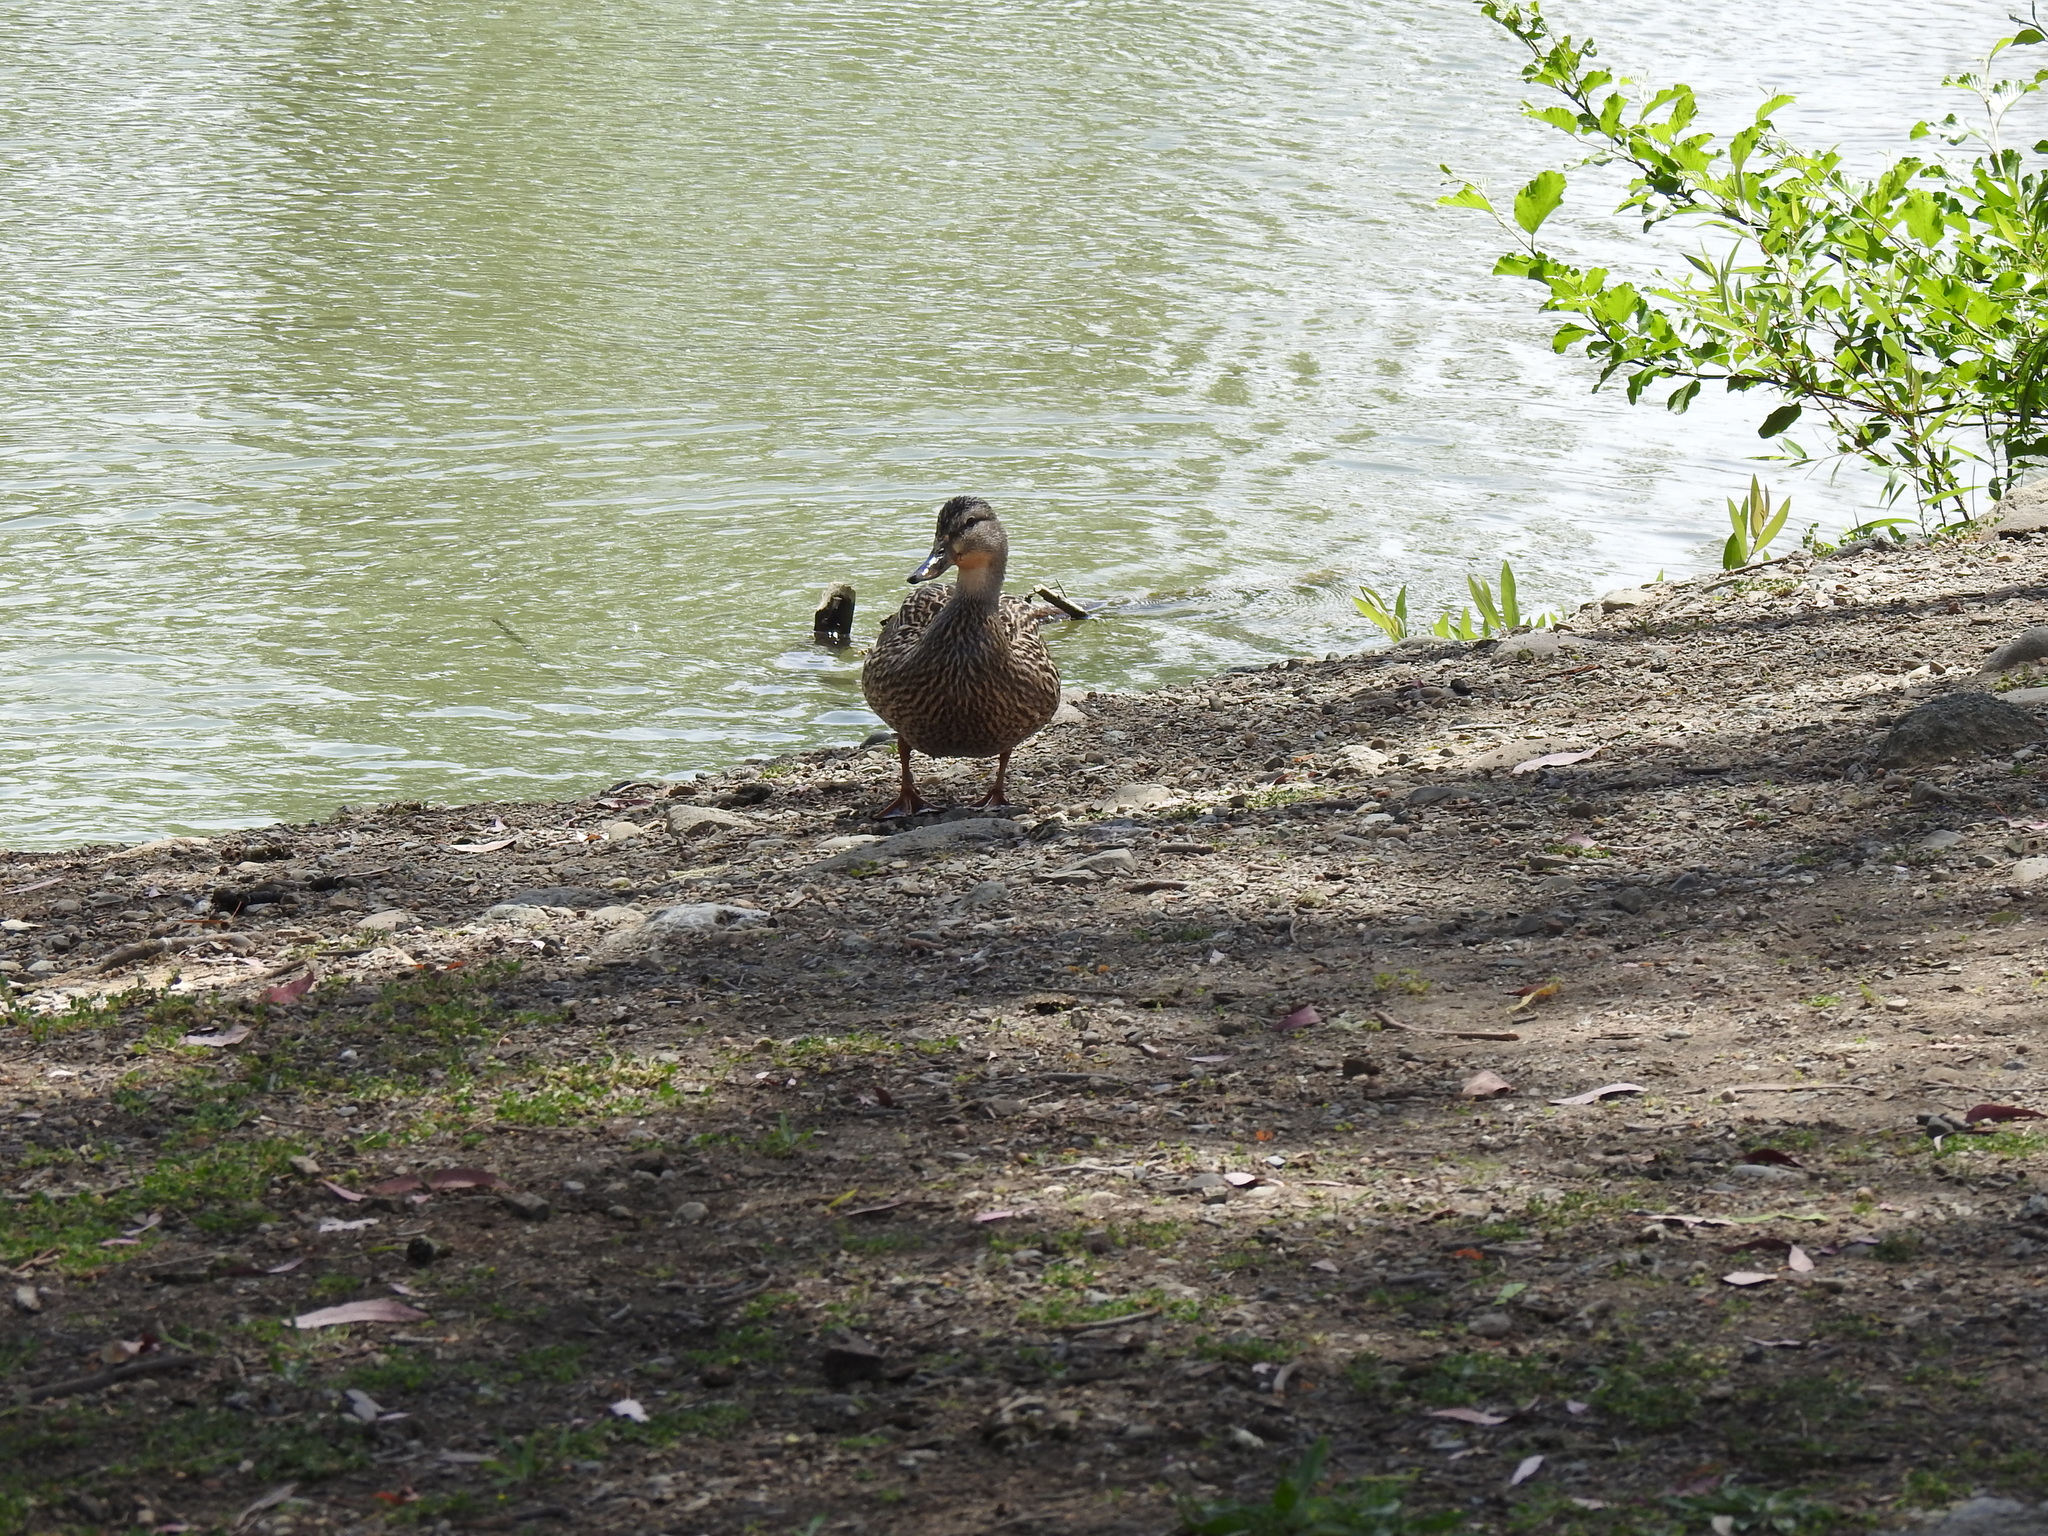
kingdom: Animalia
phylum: Chordata
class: Aves
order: Anseriformes
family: Anatidae
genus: Anas
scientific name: Anas platyrhynchos
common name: Mallard
